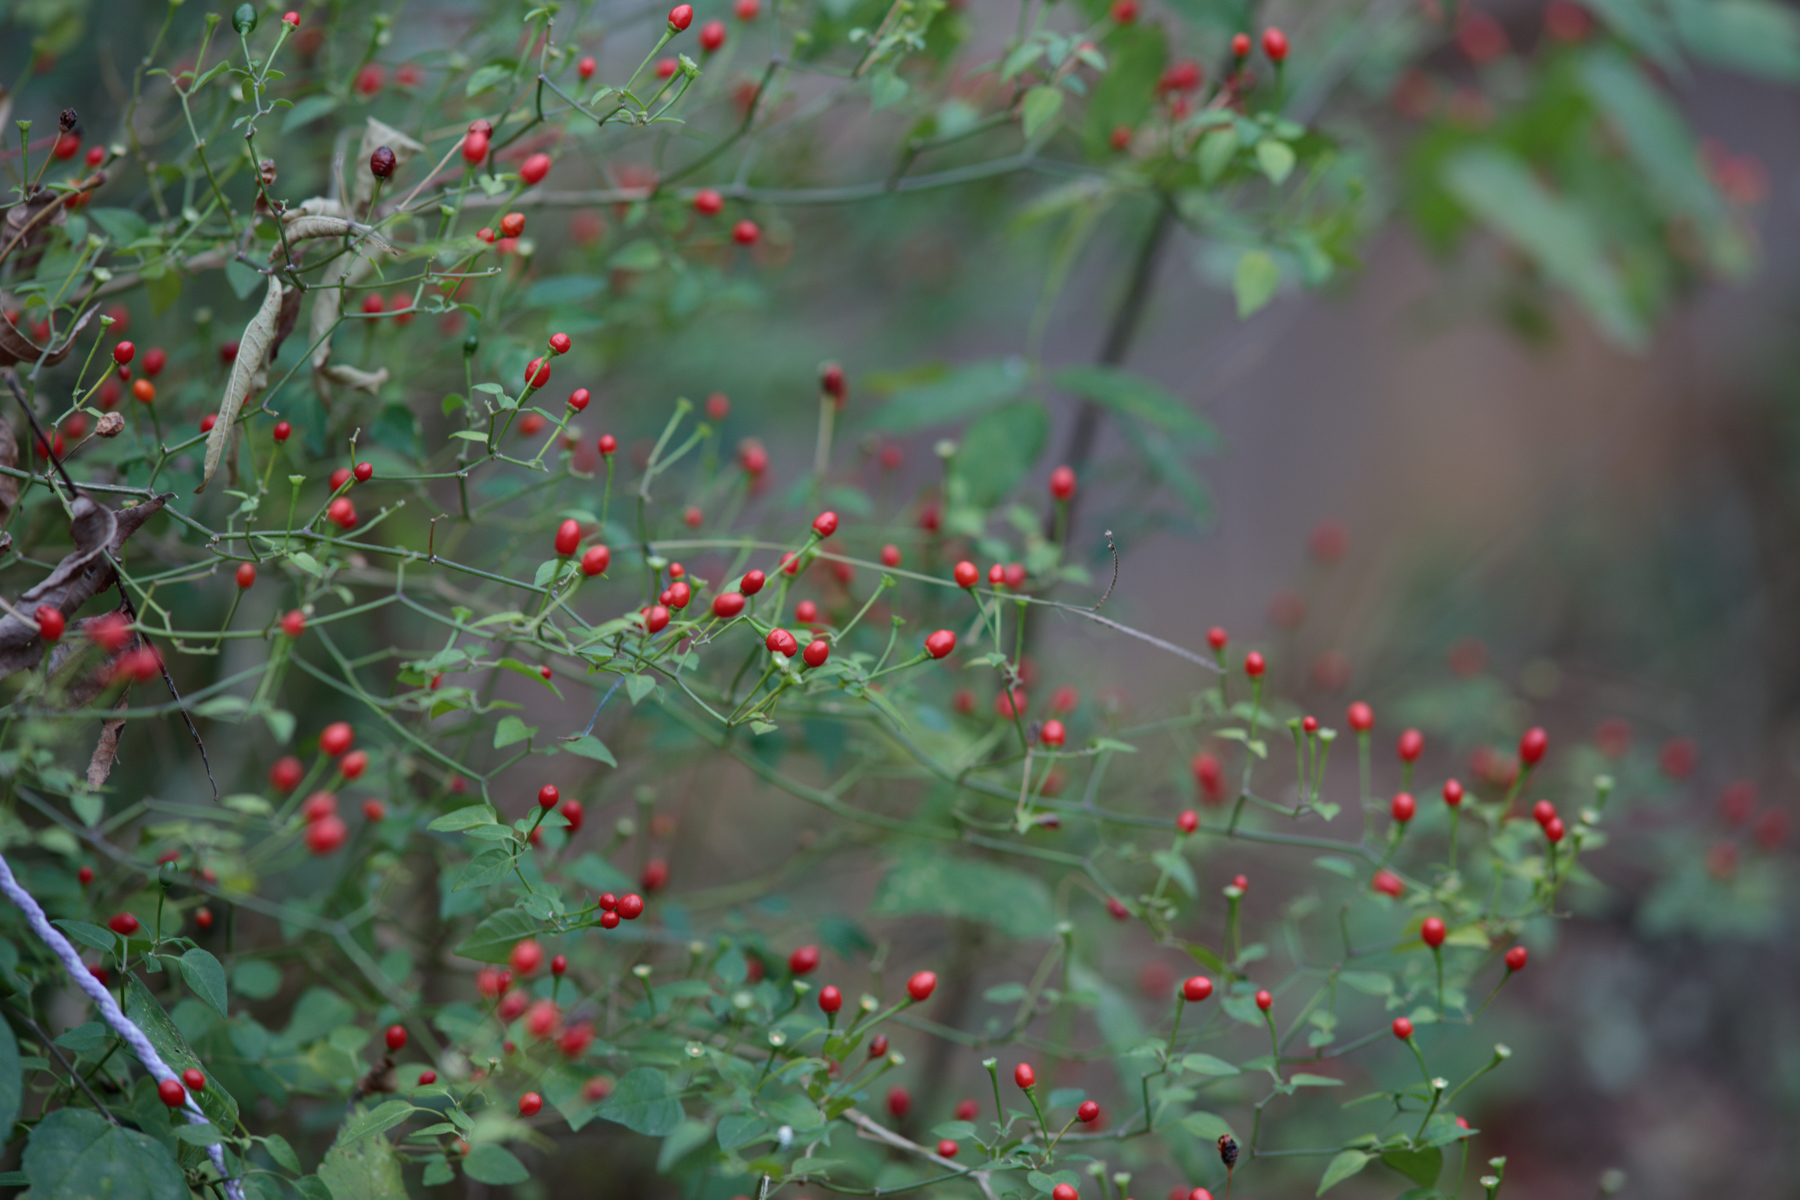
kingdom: Plantae
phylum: Tracheophyta
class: Magnoliopsida
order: Solanales
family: Solanaceae
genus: Capsicum
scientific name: Capsicum annuum
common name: Sweet pepper
